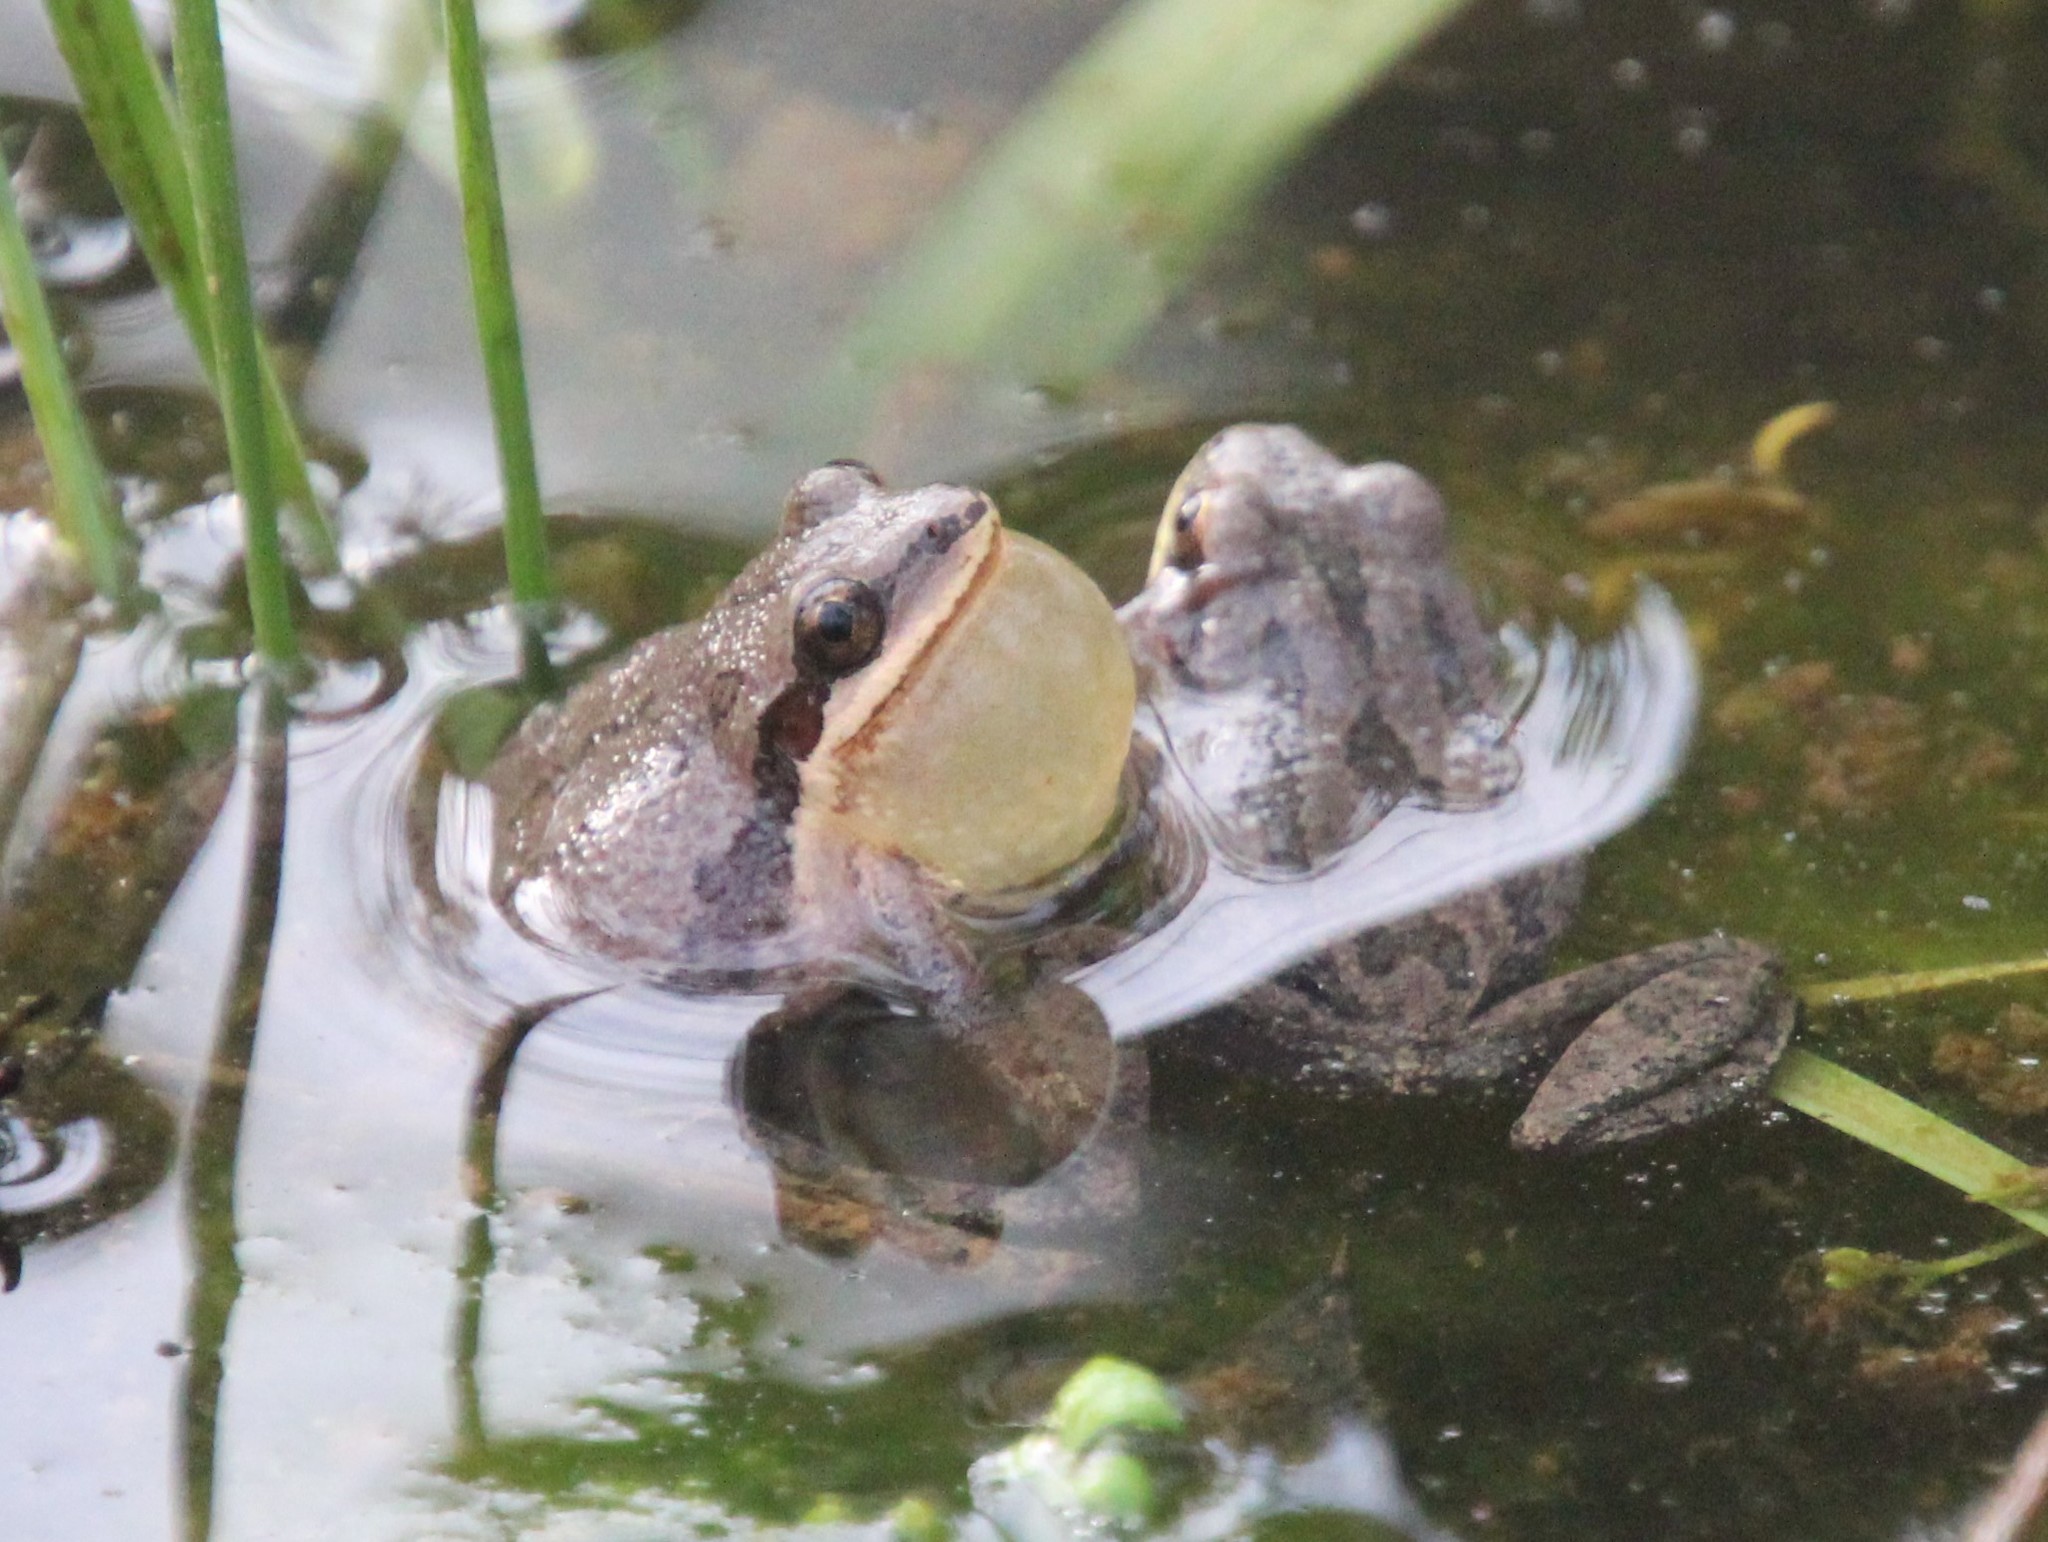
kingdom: Animalia
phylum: Chordata
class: Amphibia
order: Anura
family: Hylidae
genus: Pseudacris
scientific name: Pseudacris feriarum
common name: Upland chorus frog
